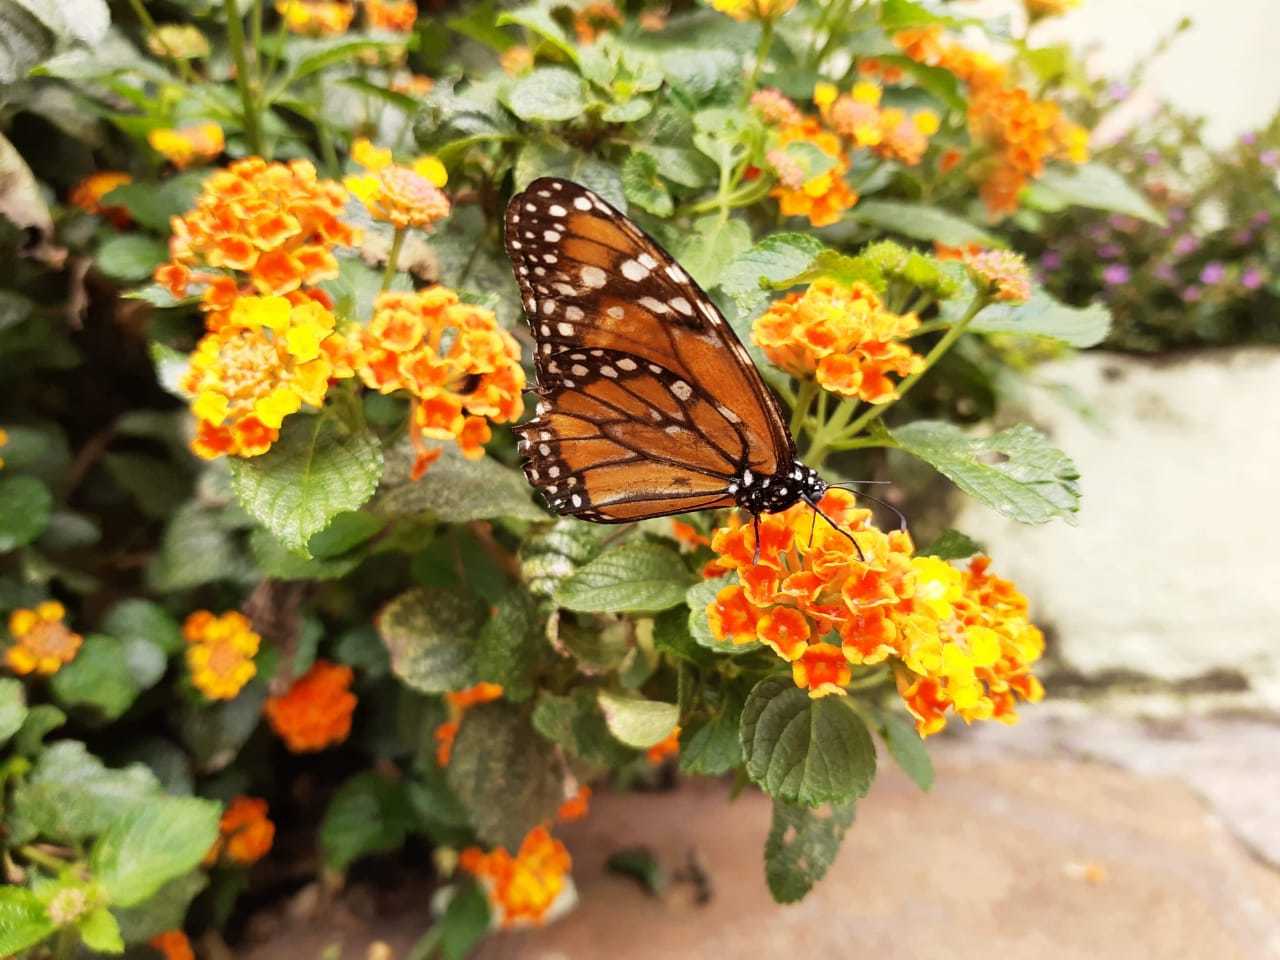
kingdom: Animalia
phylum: Arthropoda
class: Insecta
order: Lepidoptera
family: Nymphalidae
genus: Danaus
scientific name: Danaus erippus
